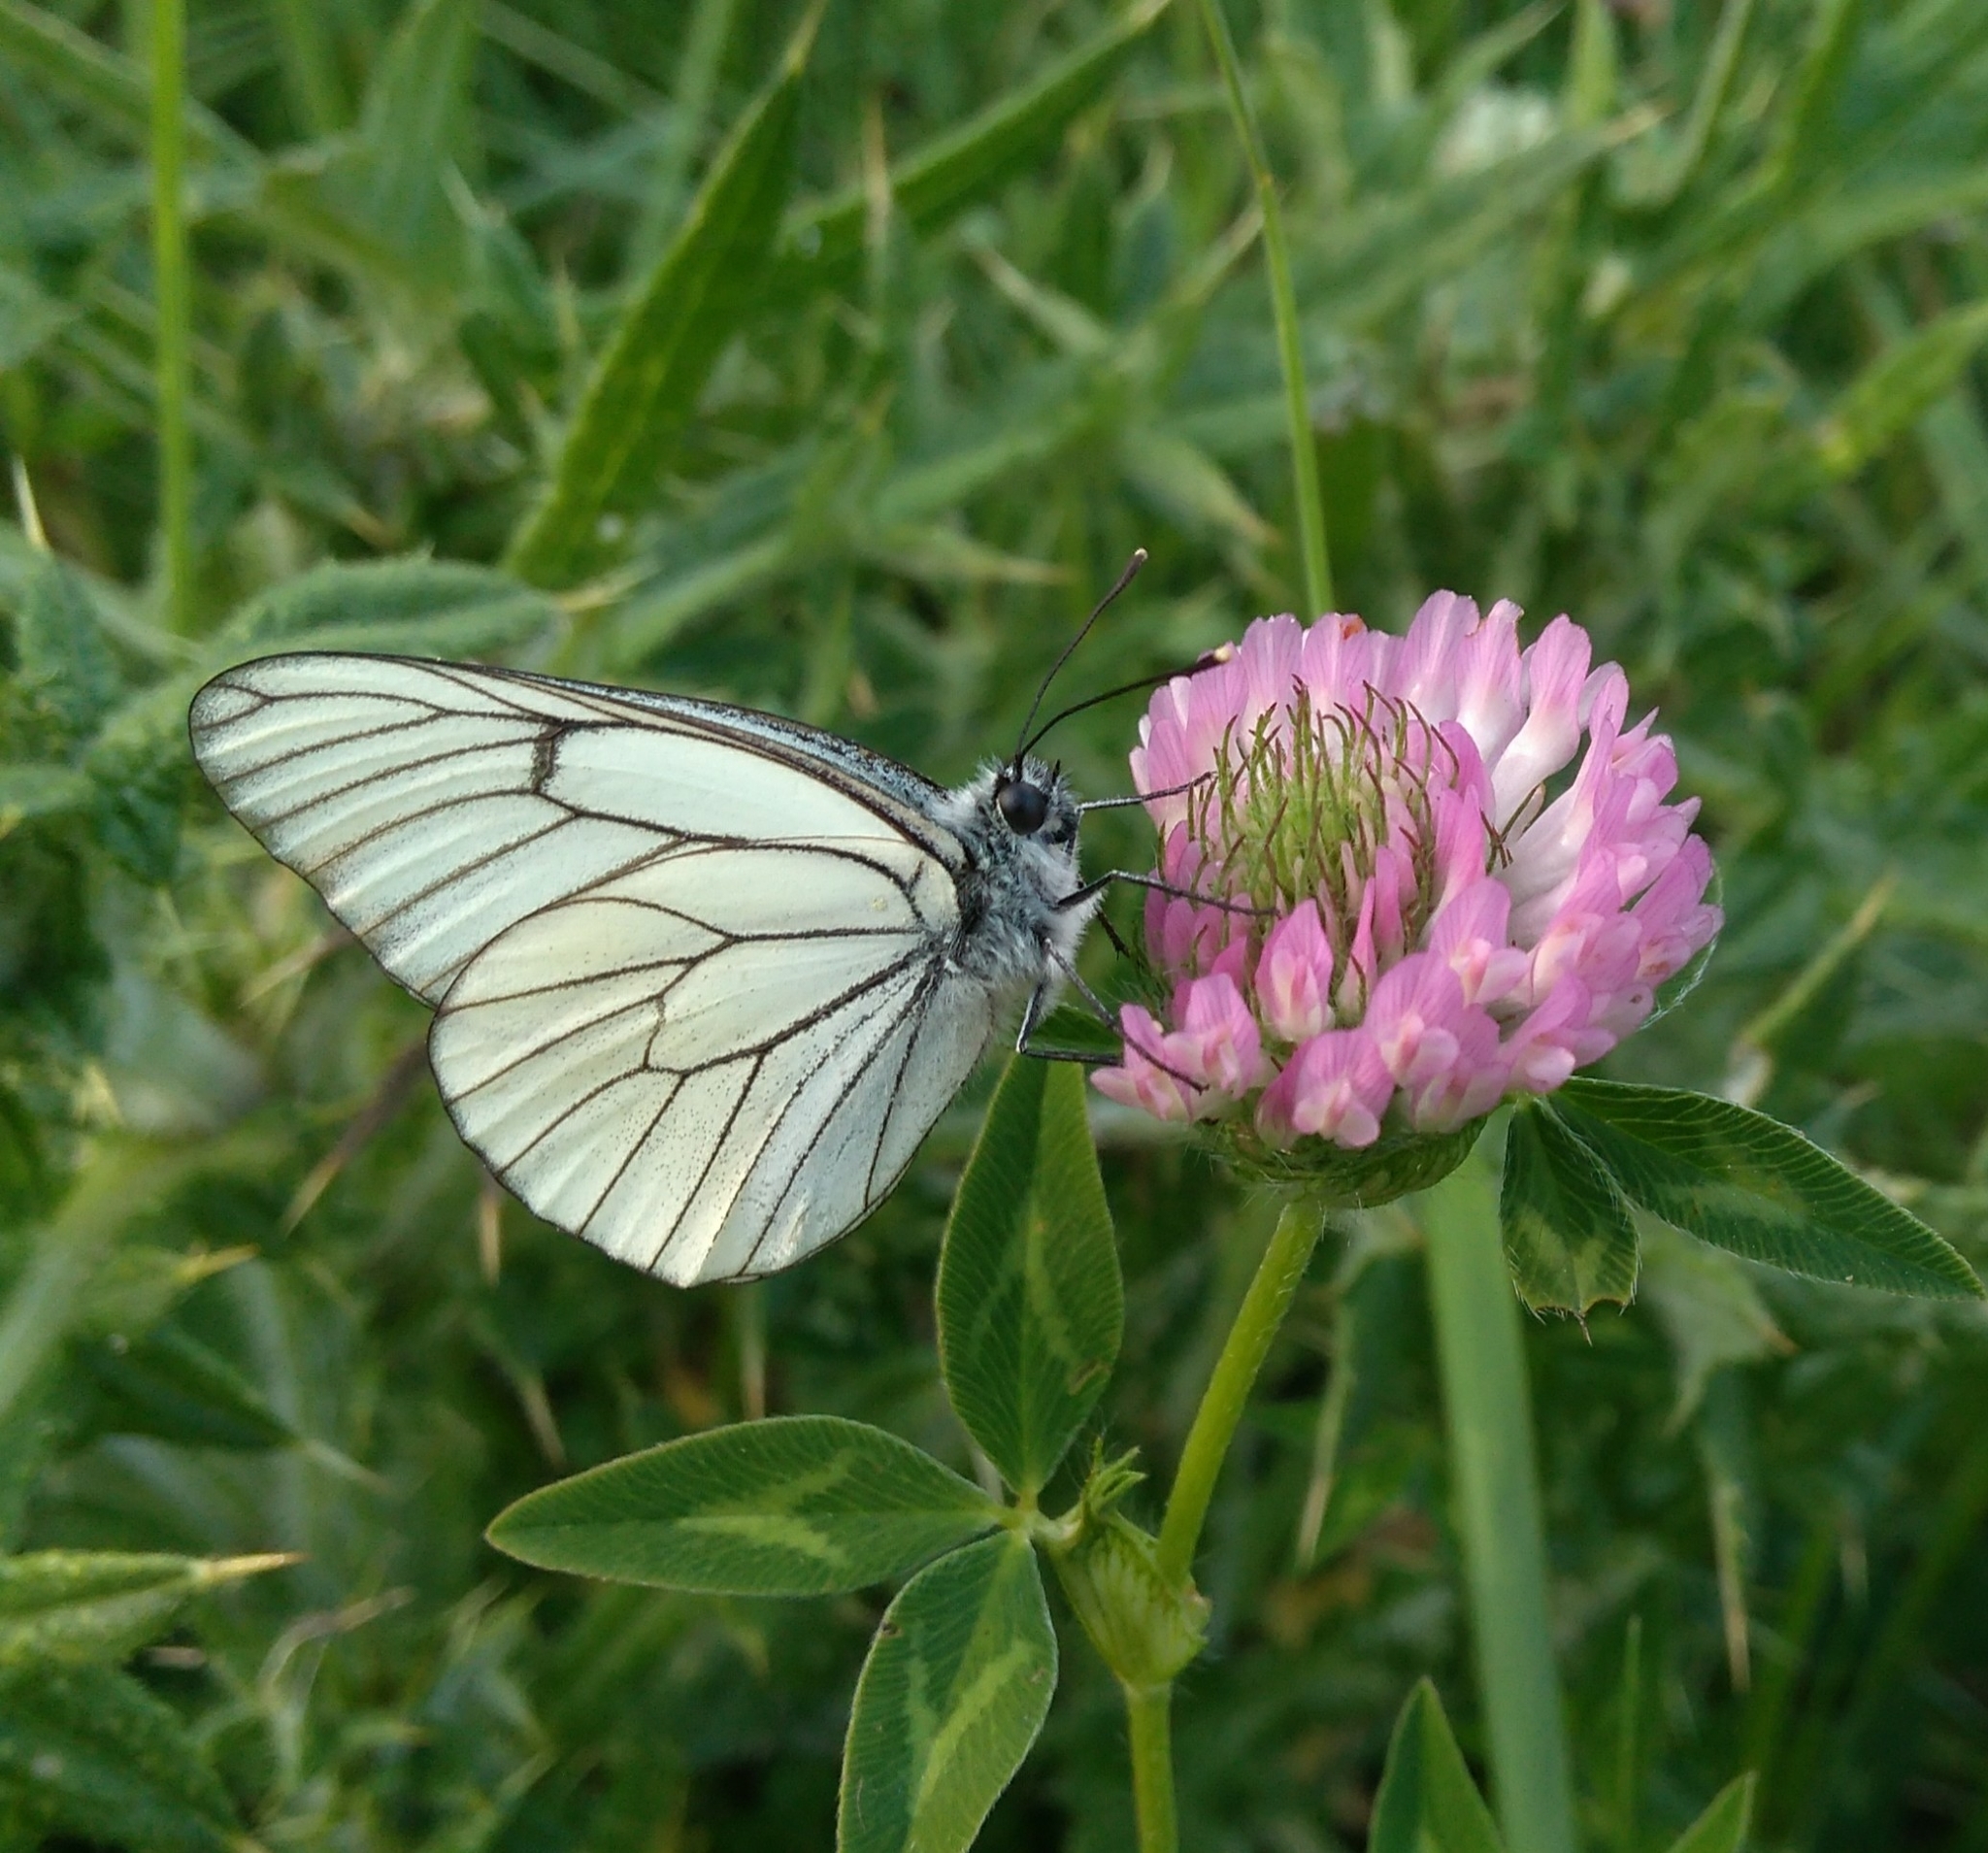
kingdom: Animalia
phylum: Arthropoda
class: Insecta
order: Lepidoptera
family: Pieridae
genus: Aporia
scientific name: Aporia crataegi
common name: Black-veined white
